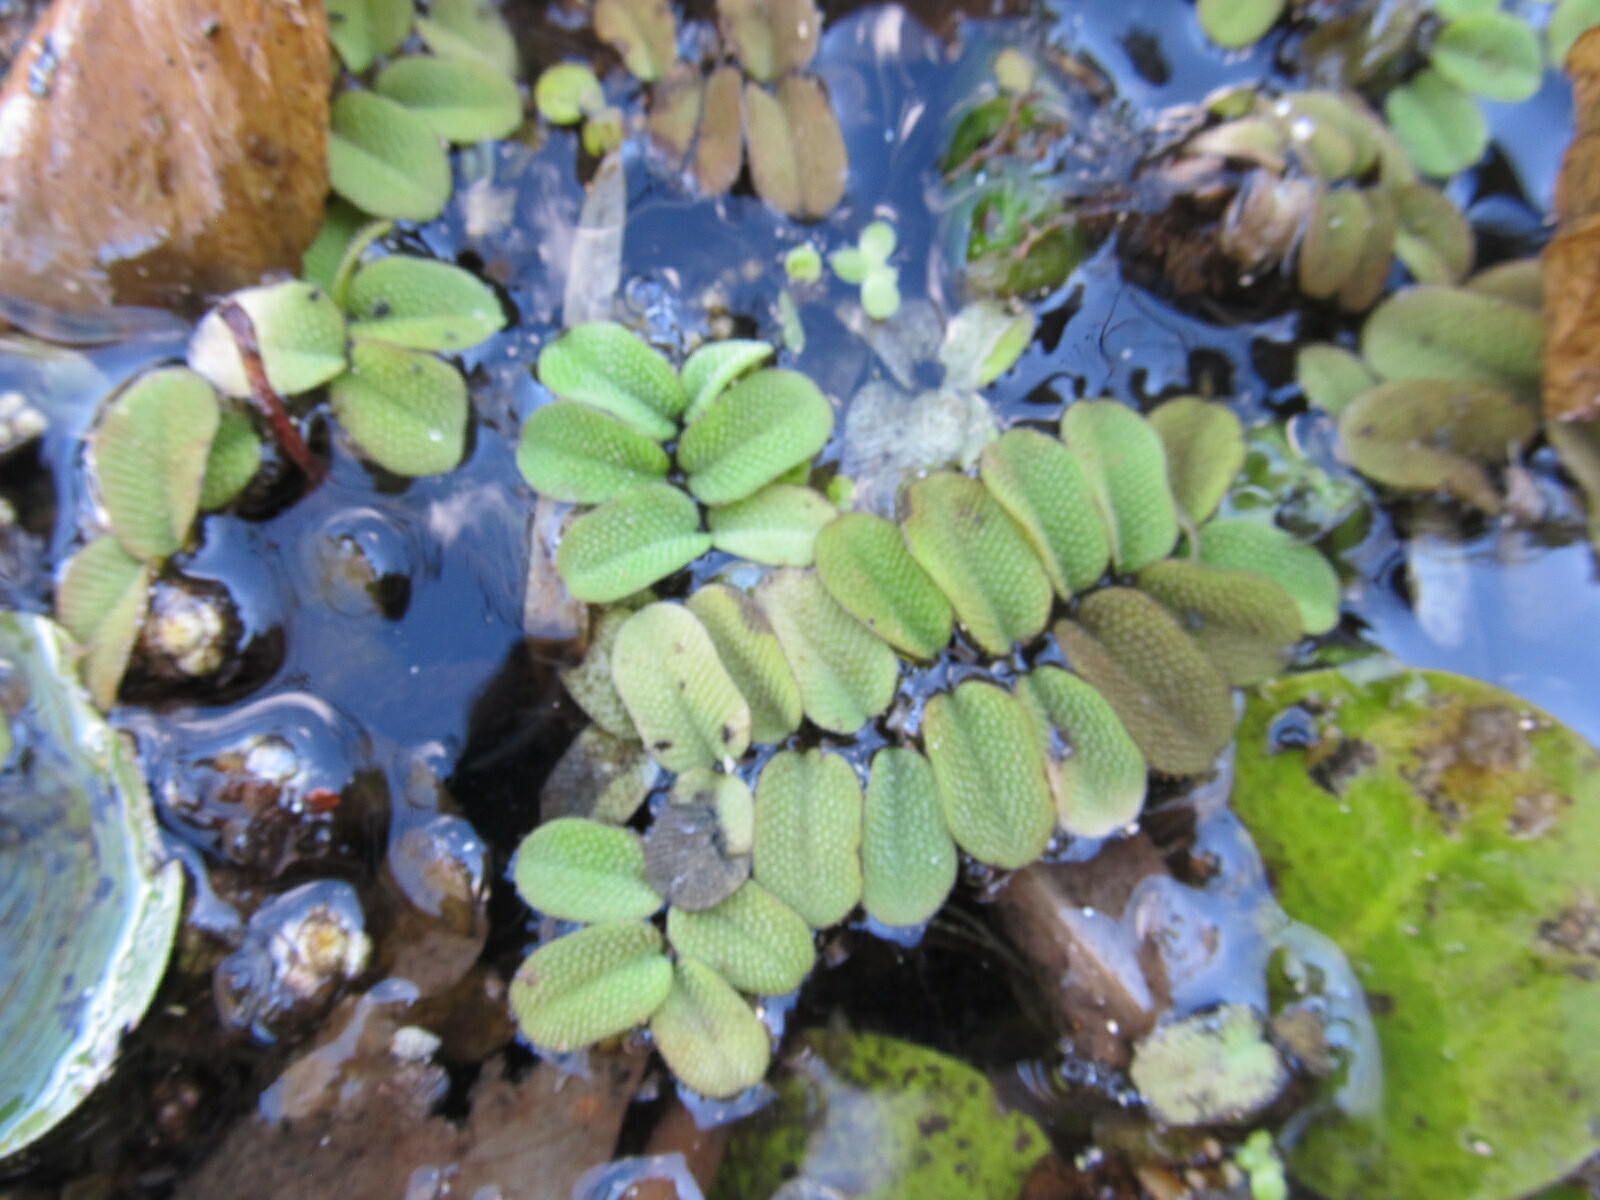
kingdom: Plantae
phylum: Tracheophyta
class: Polypodiopsida
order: Salviniales
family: Salviniaceae
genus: Salvinia
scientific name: Salvinia natans
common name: Floating fern
